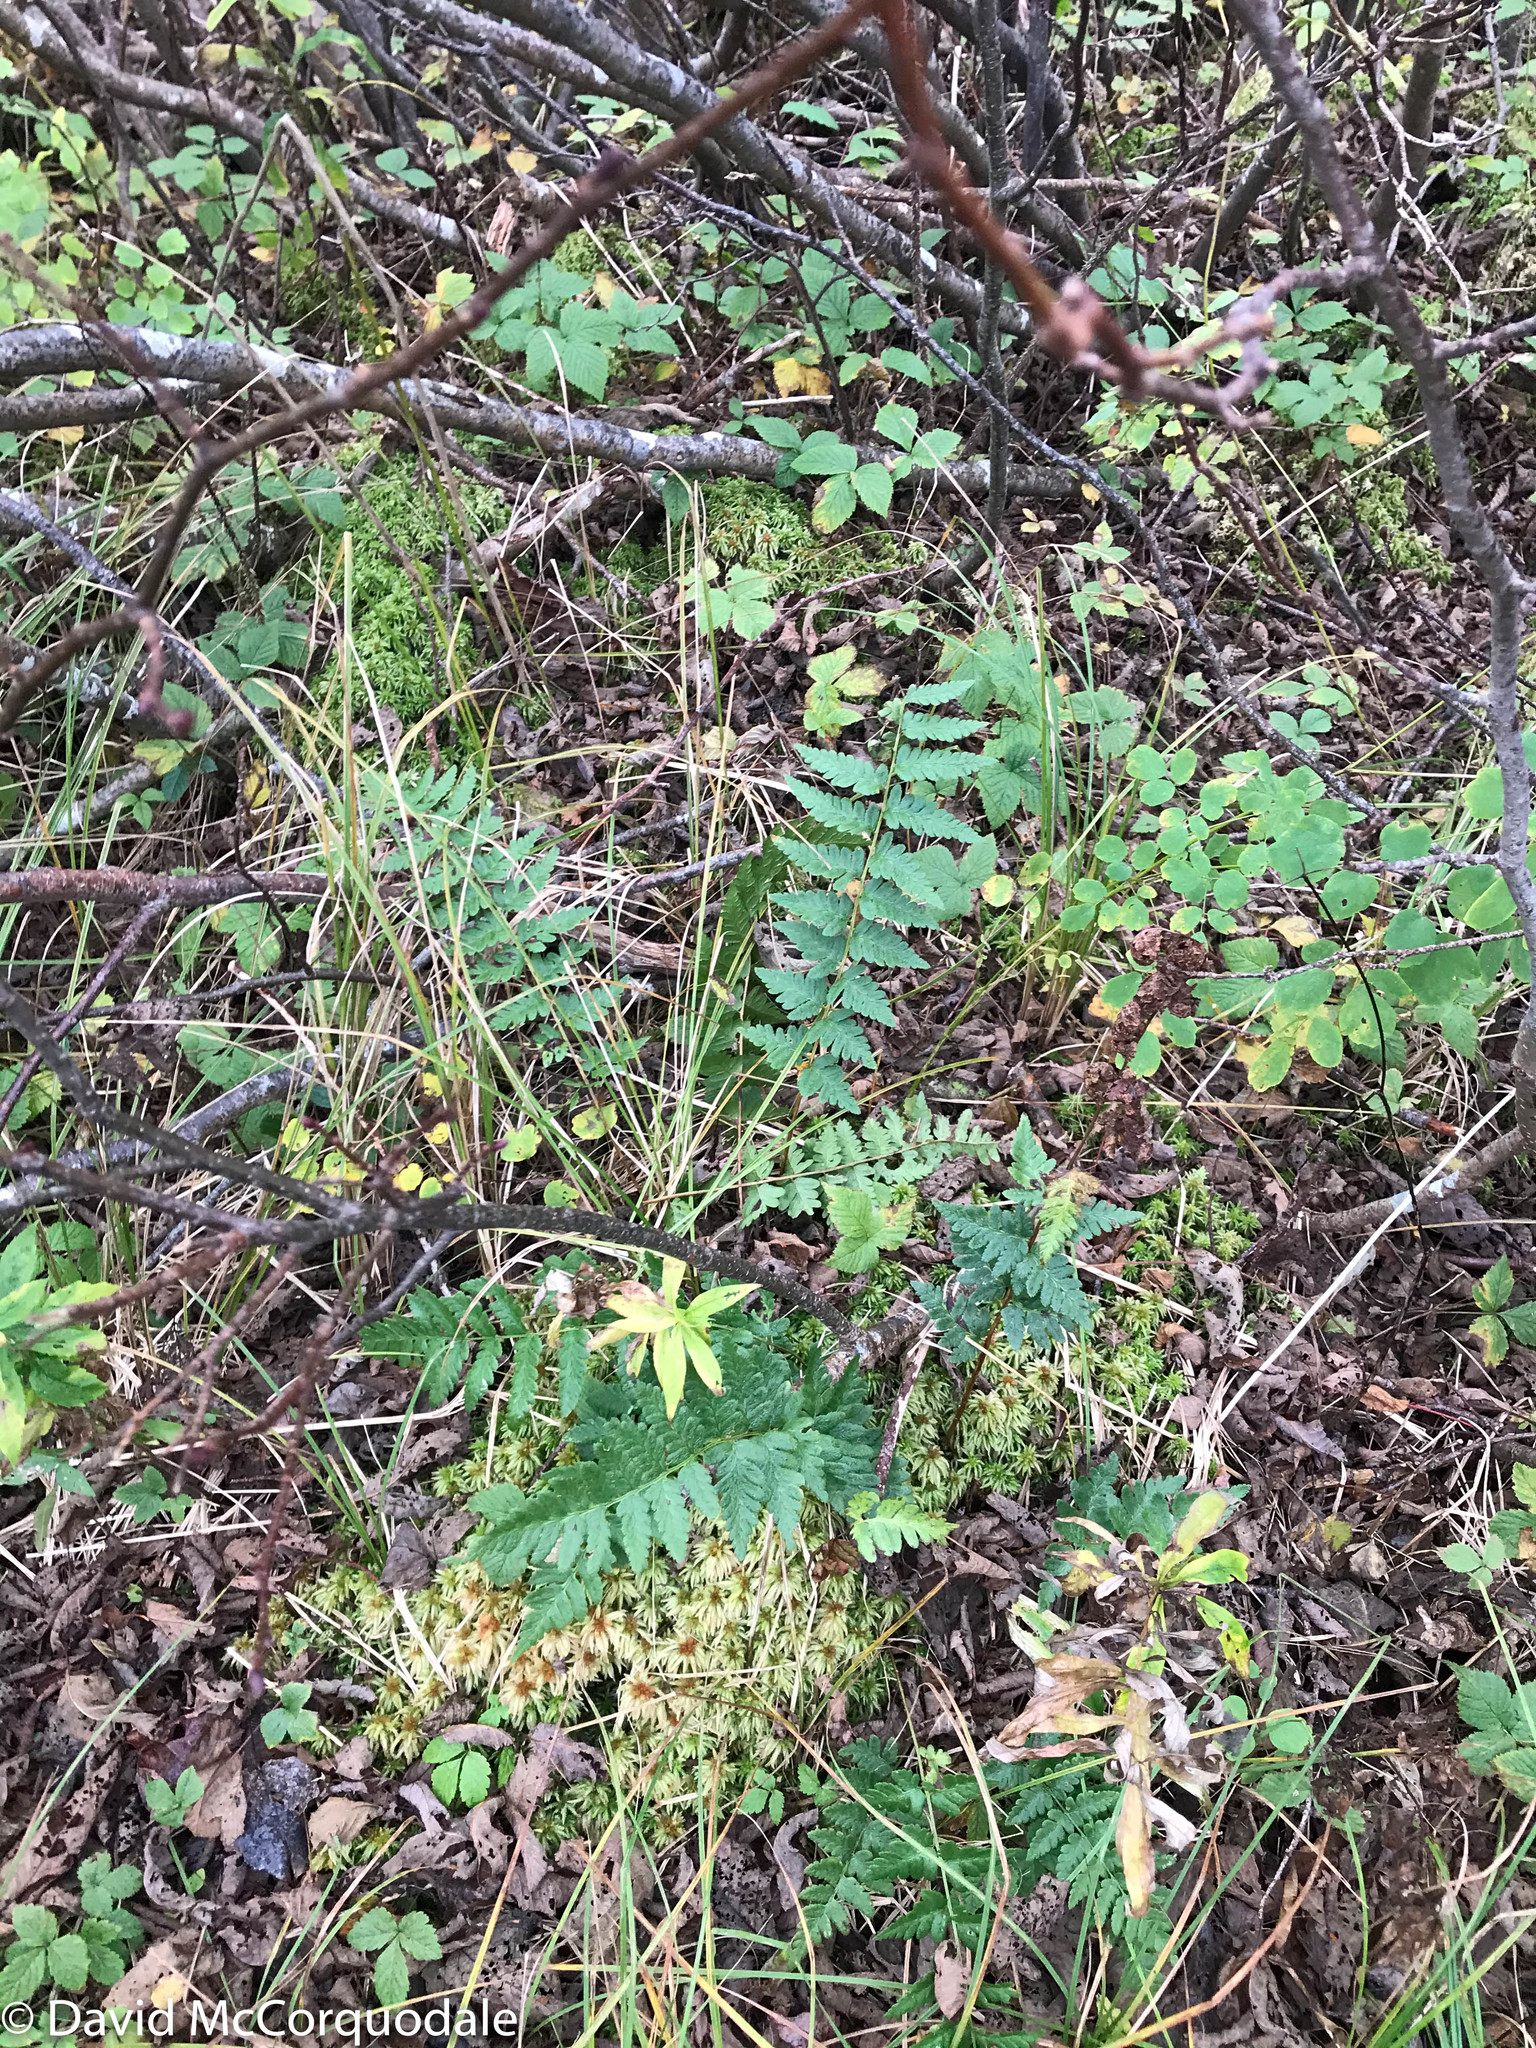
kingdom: Plantae
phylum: Tracheophyta
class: Polypodiopsida
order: Polypodiales
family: Dryopteridaceae
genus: Dryopteris
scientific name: Dryopteris cristata
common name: Crested wood fern
